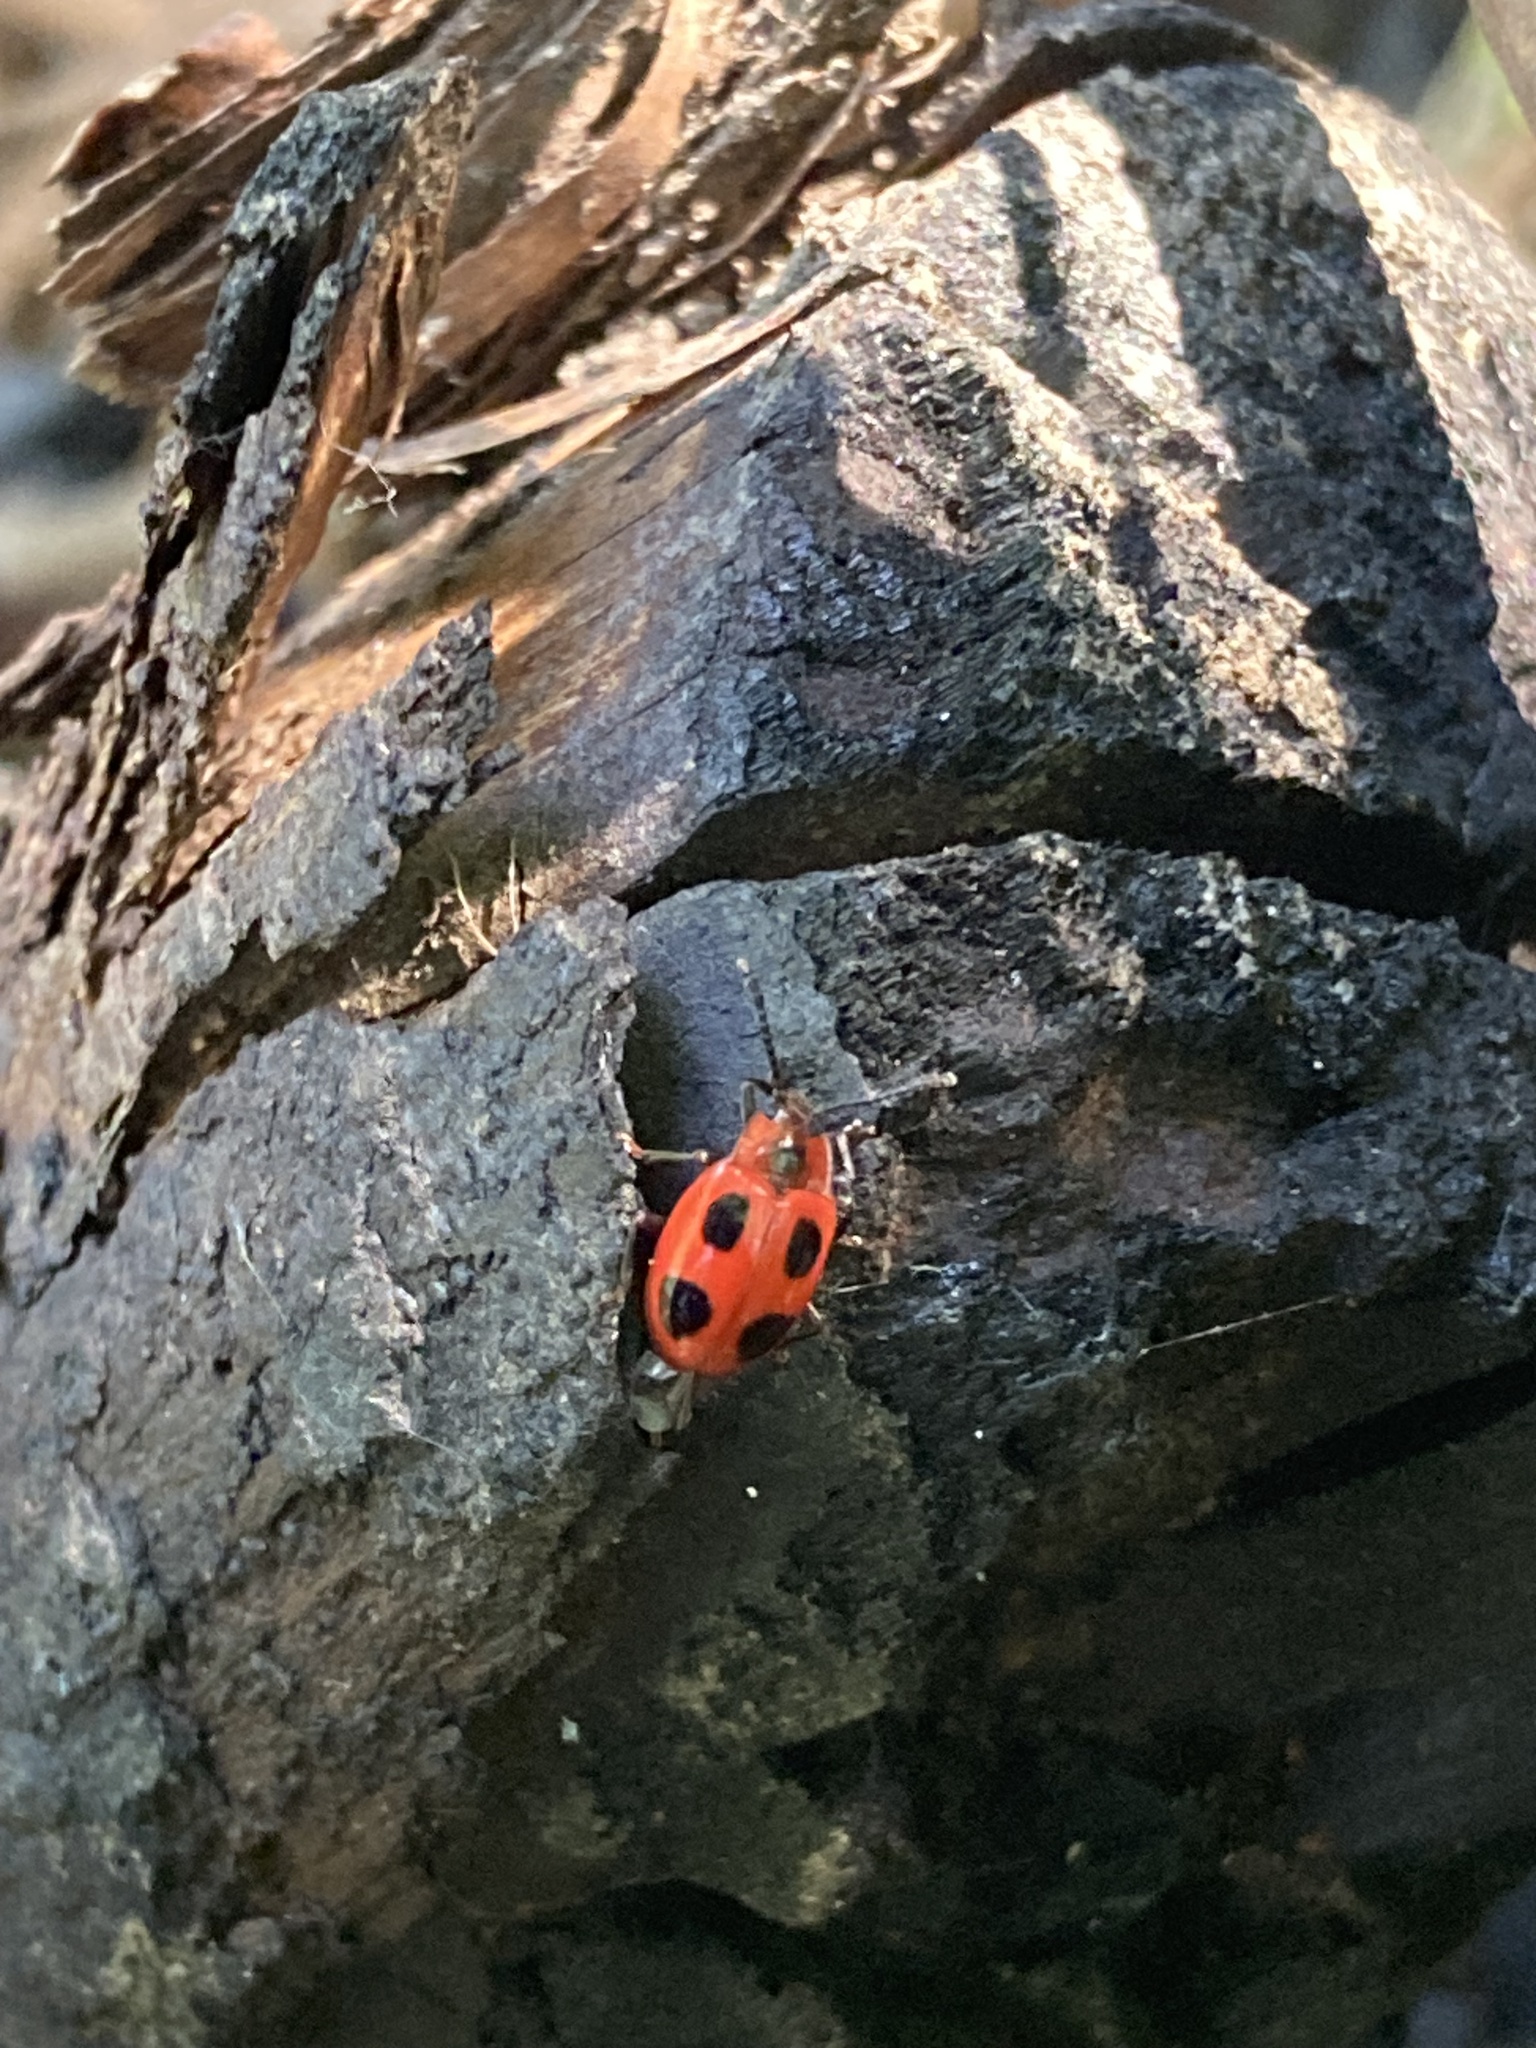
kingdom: Animalia
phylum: Arthropoda
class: Insecta
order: Coleoptera
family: Endomychidae
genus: Endomychus
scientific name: Endomychus coccineus
